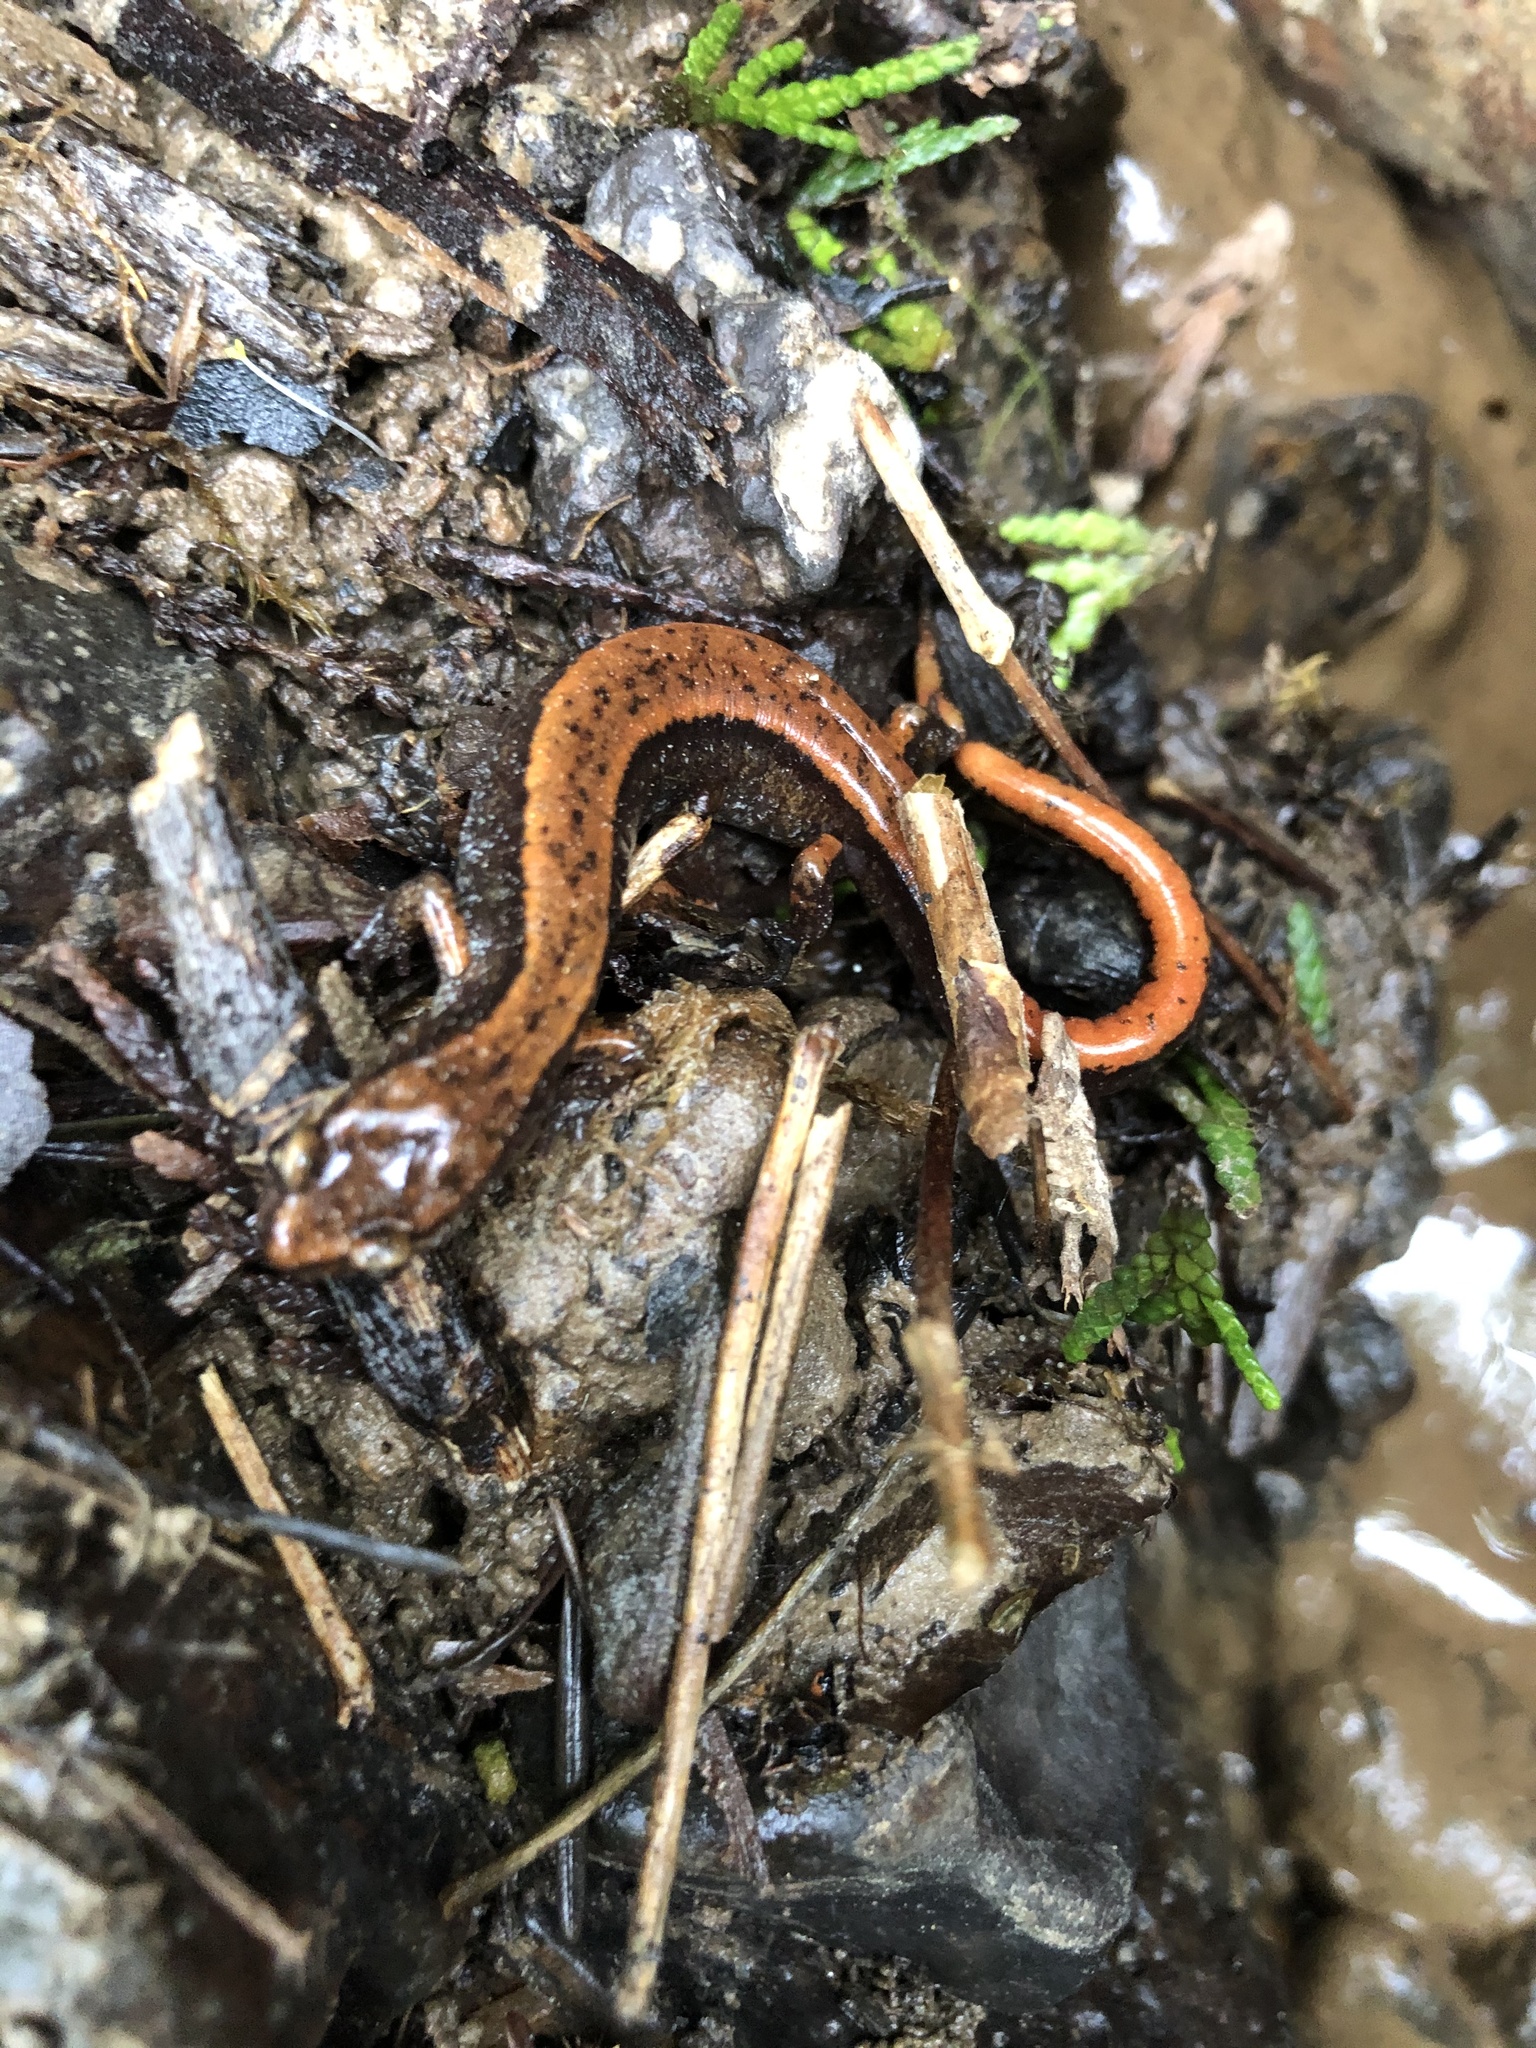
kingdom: Animalia
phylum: Chordata
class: Amphibia
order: Caudata
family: Plethodontidae
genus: Plethodon
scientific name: Plethodon vehiculum
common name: Western red-backed salamander
